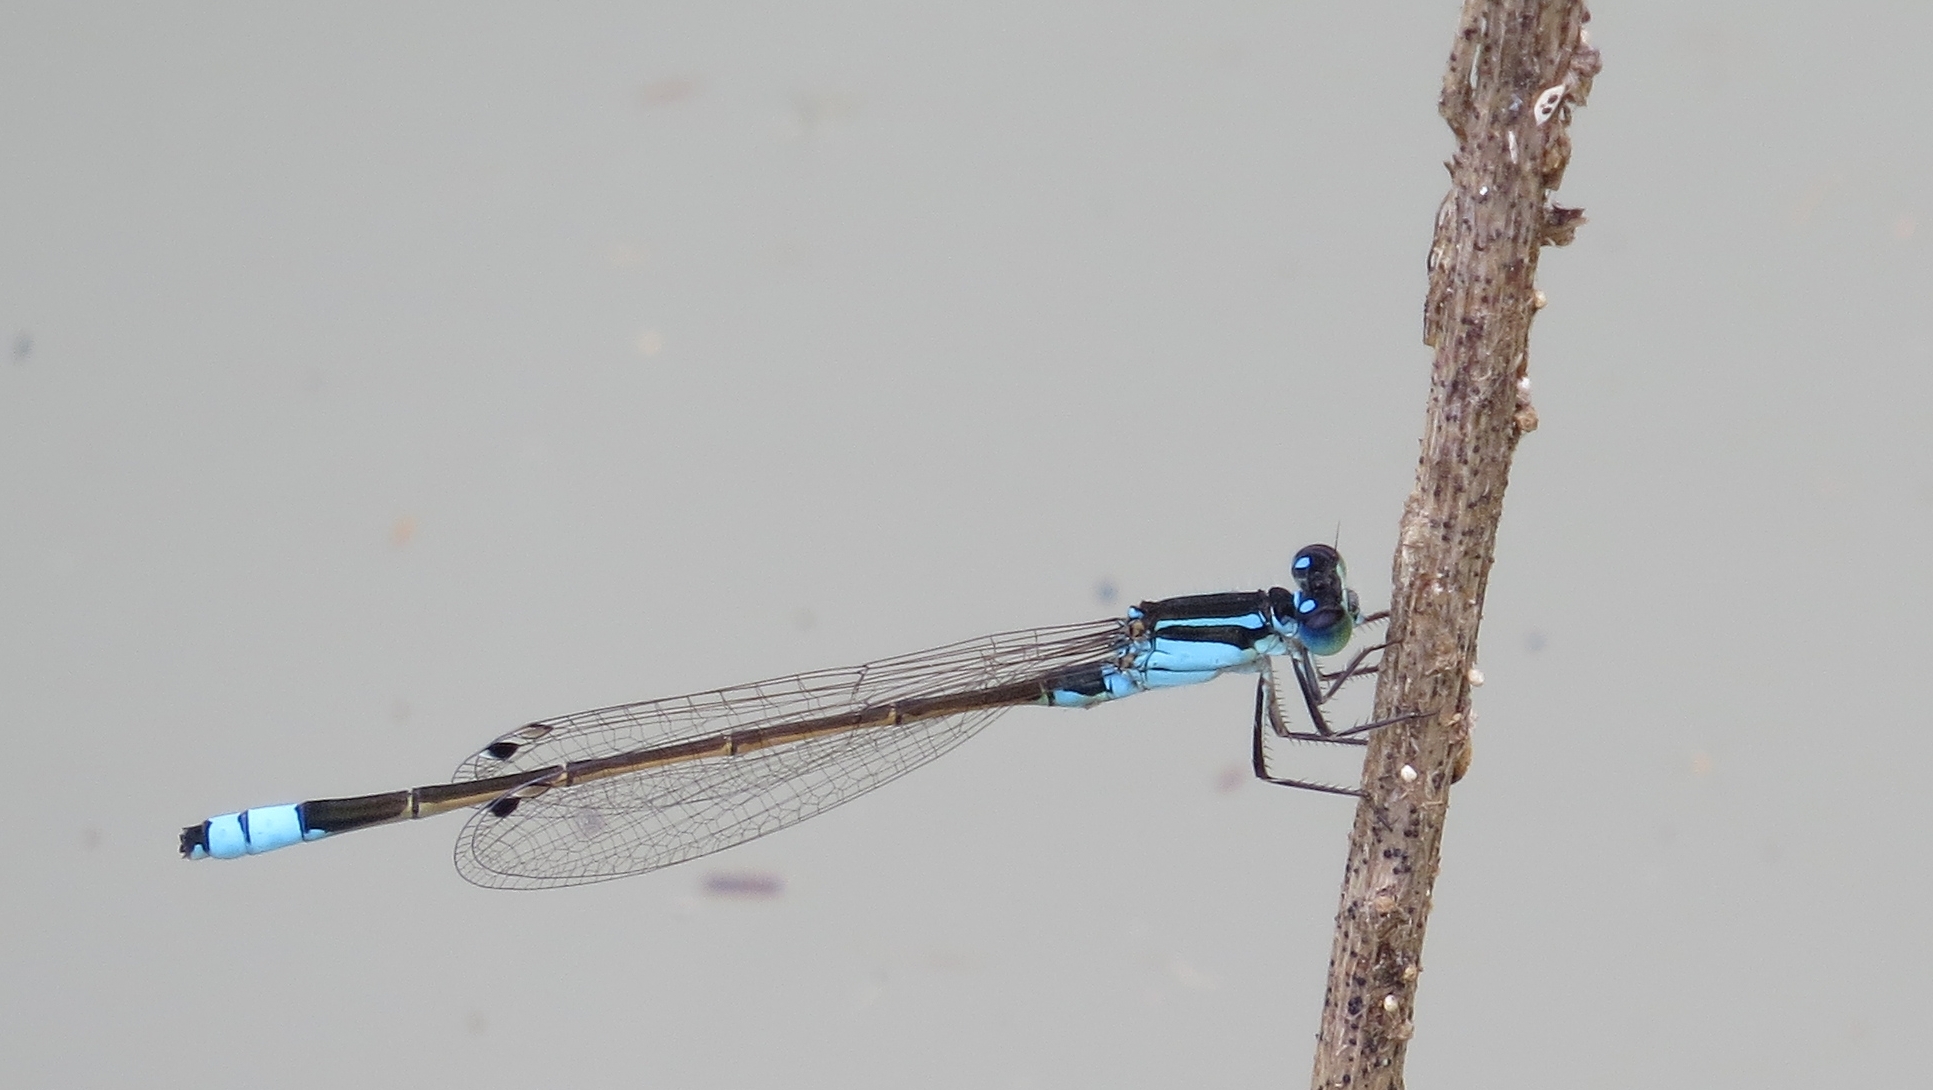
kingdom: Animalia
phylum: Arthropoda
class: Insecta
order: Odonata
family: Coenagrionidae
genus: Ischnura
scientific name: Ischnura heterosticta
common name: Common bluetail
